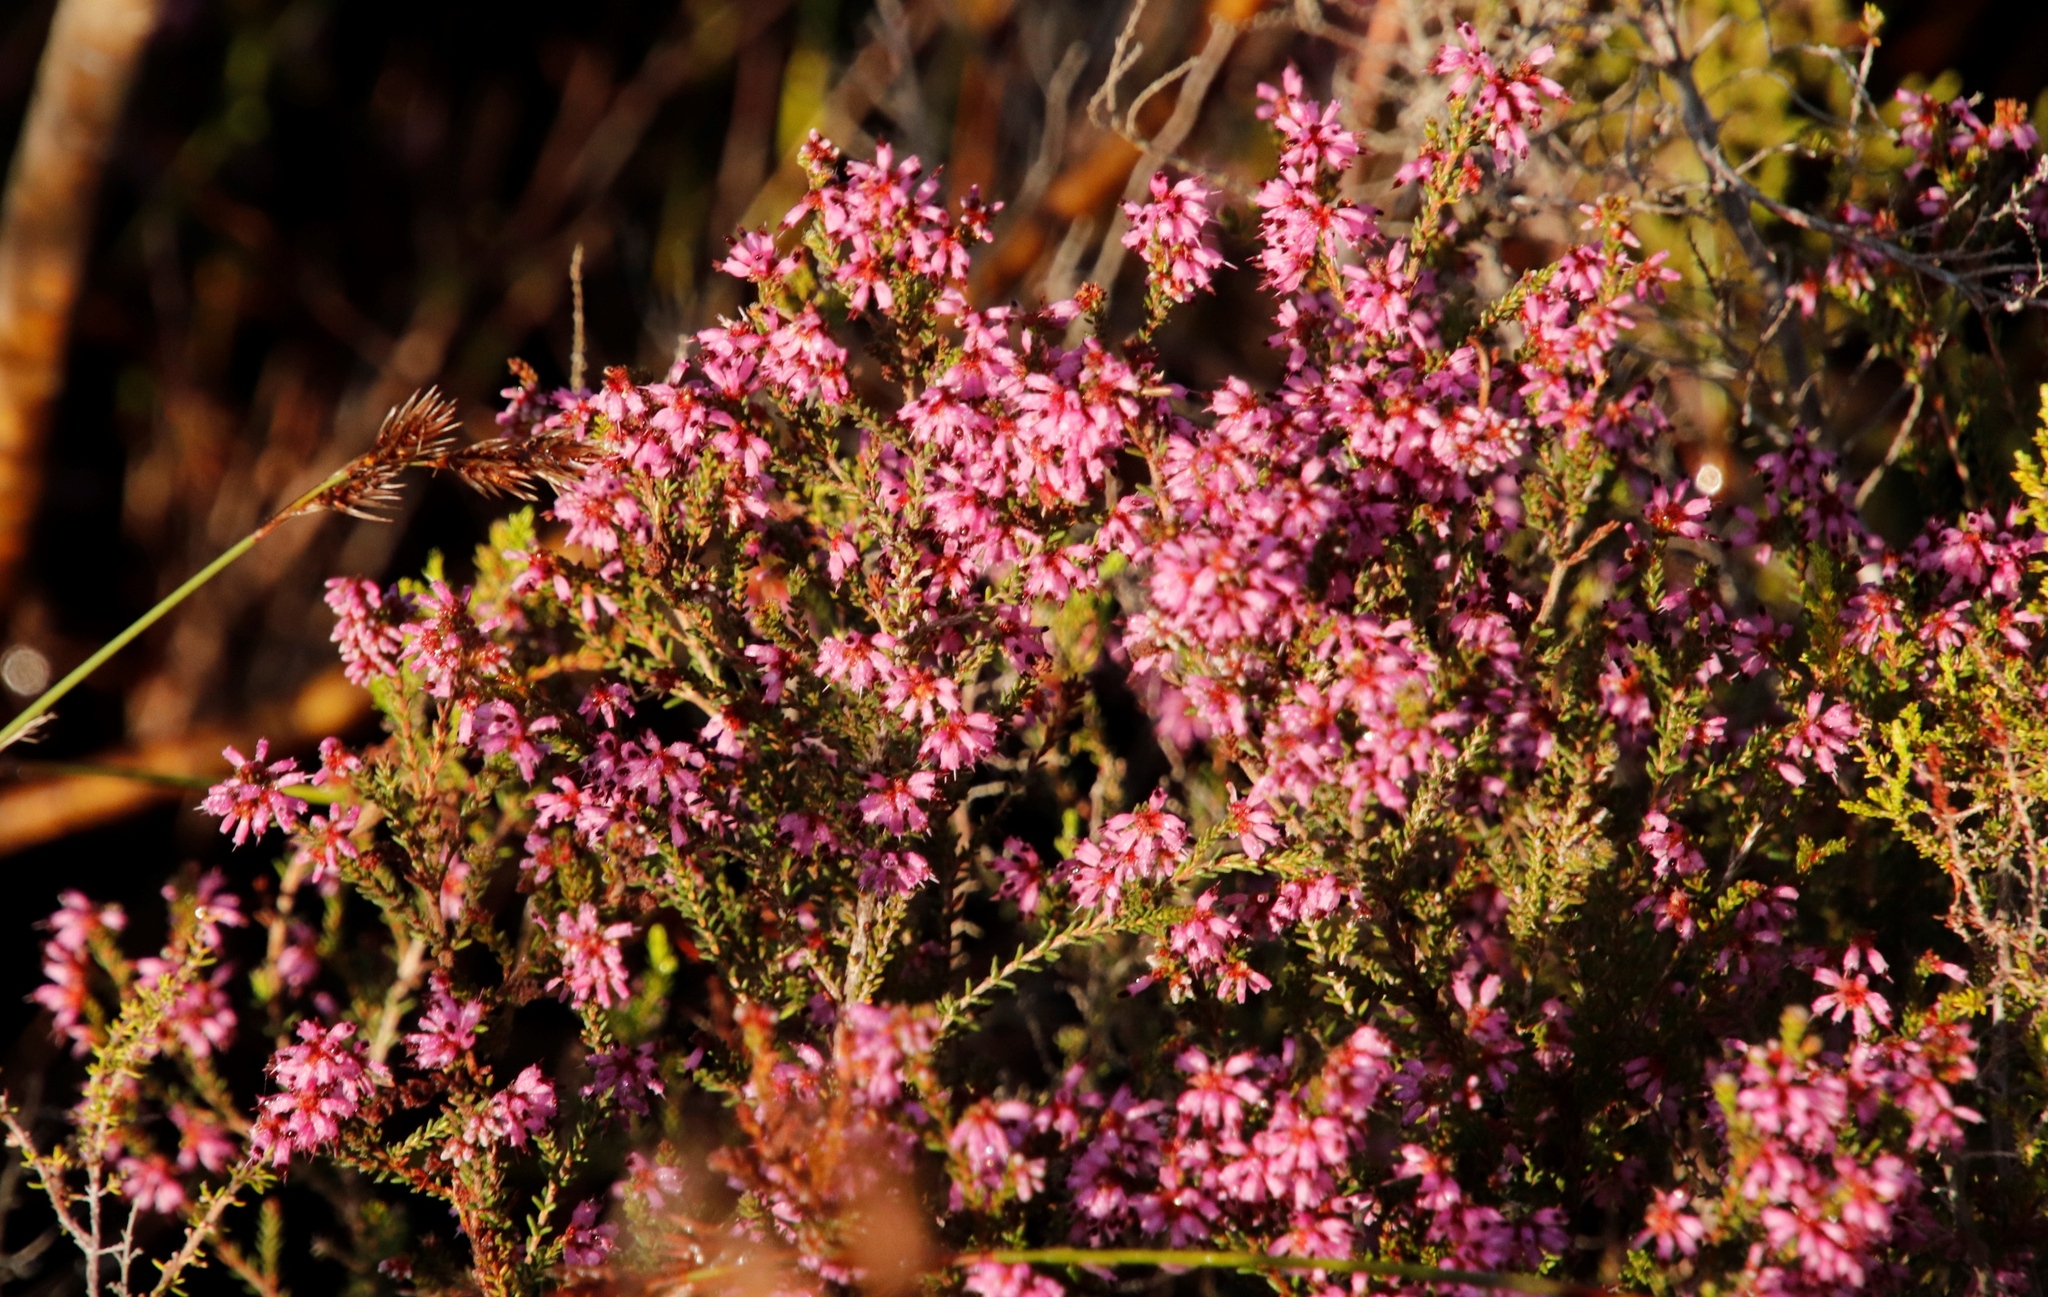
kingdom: Plantae
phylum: Tracheophyta
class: Magnoliopsida
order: Ericales
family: Ericaceae
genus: Erica
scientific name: Erica glabella
